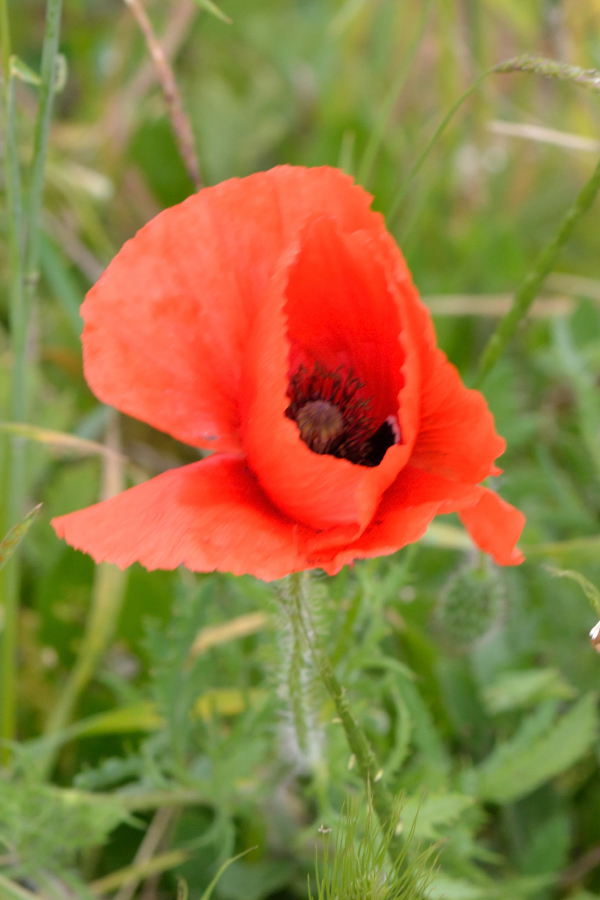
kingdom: Plantae
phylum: Tracheophyta
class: Magnoliopsida
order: Ranunculales
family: Papaveraceae
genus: Papaver
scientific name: Papaver rhoeas
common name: Corn poppy
